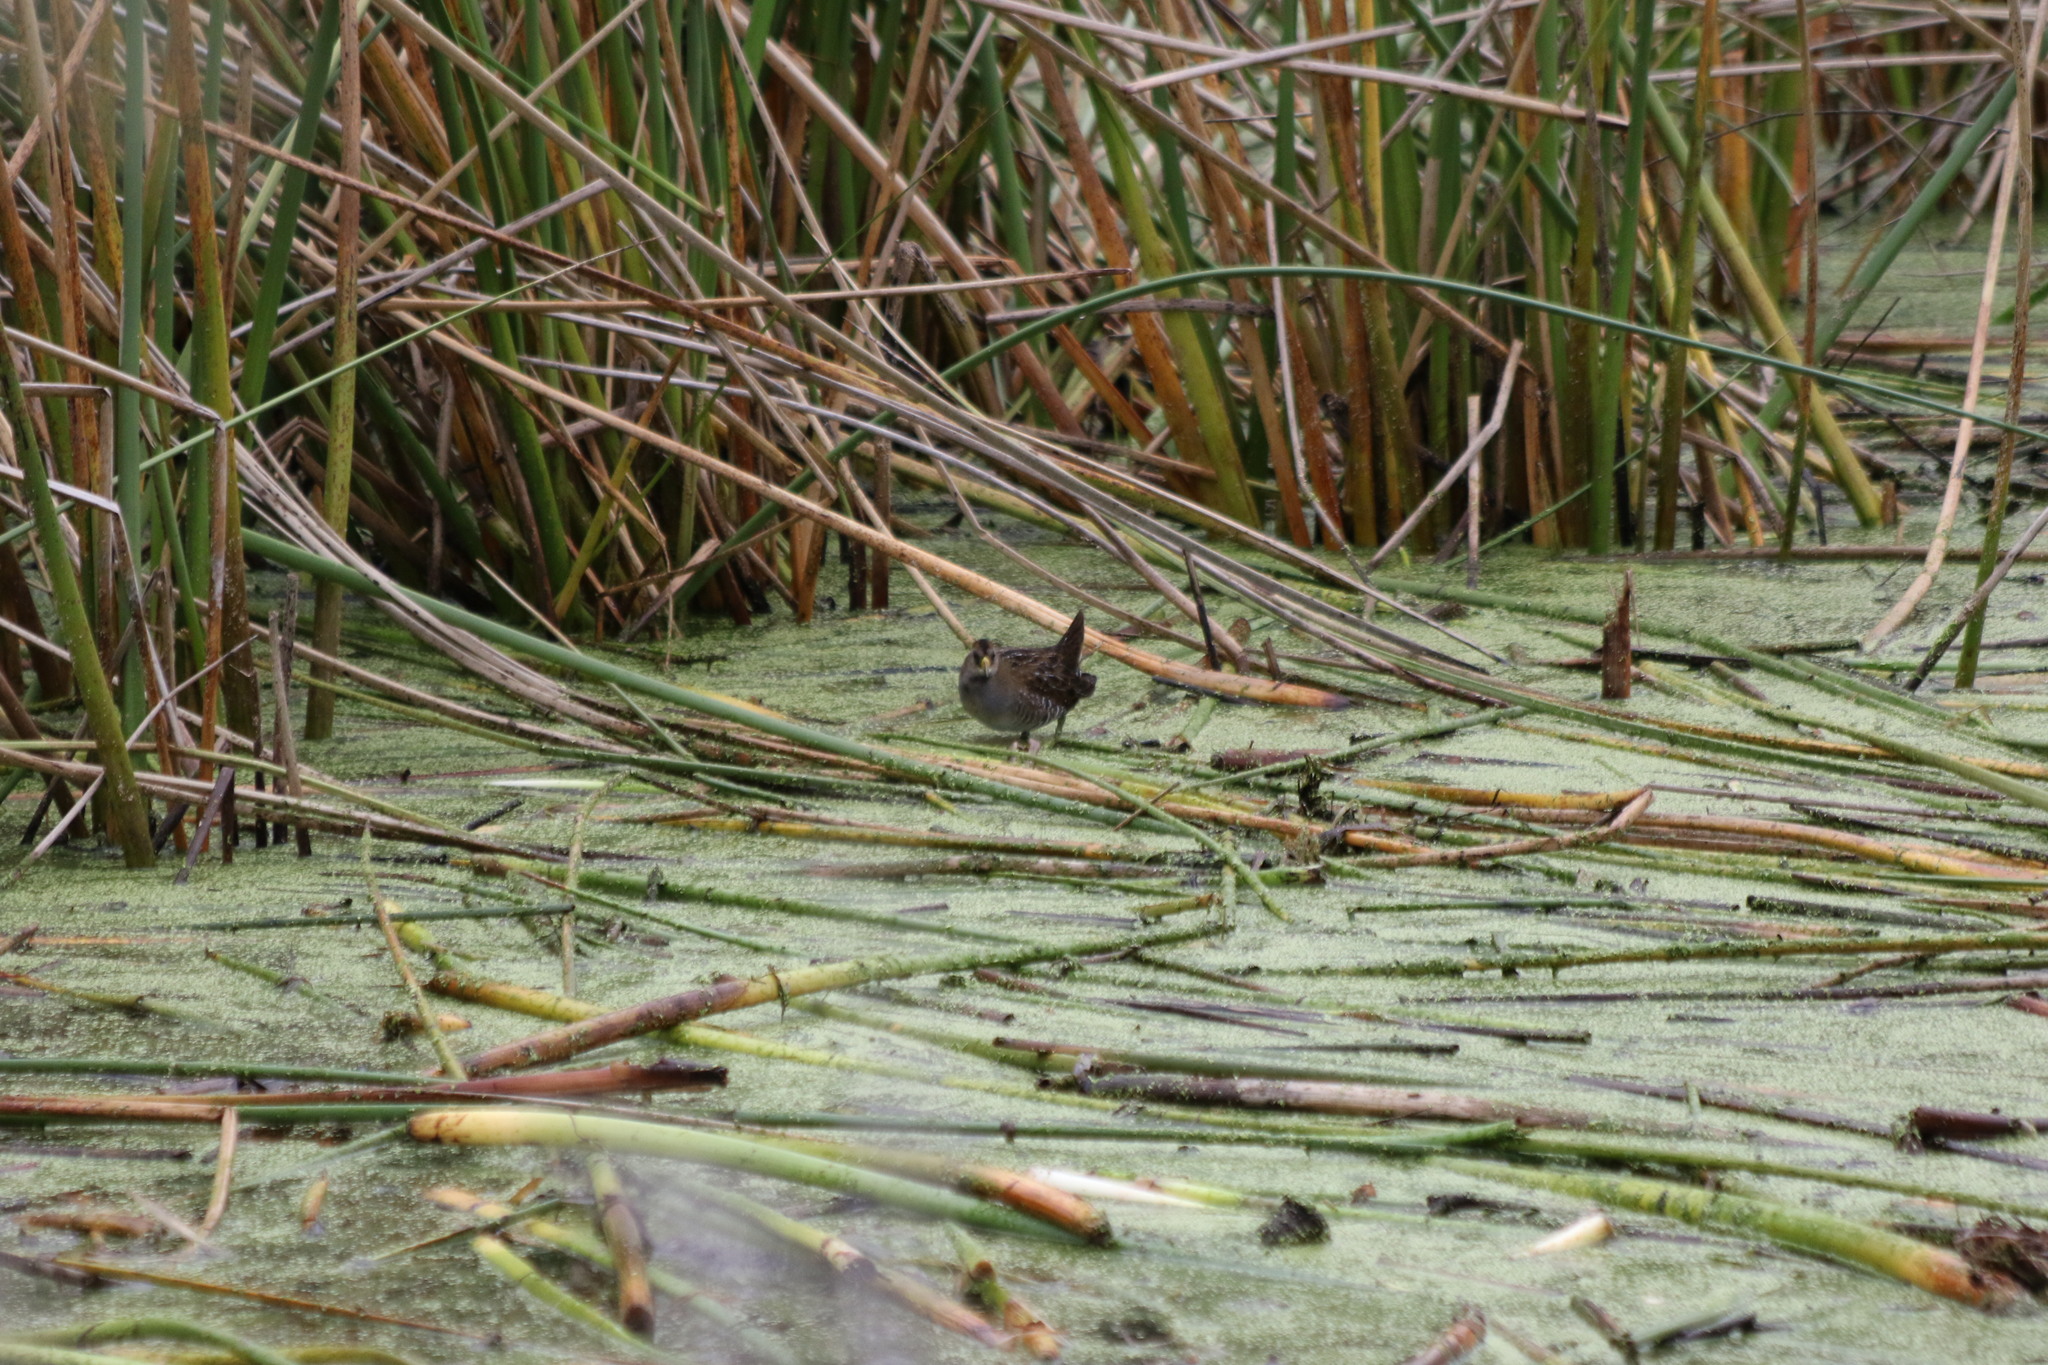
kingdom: Animalia
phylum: Chordata
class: Aves
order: Gruiformes
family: Rallidae
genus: Porzana
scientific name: Porzana carolina
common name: Sora
